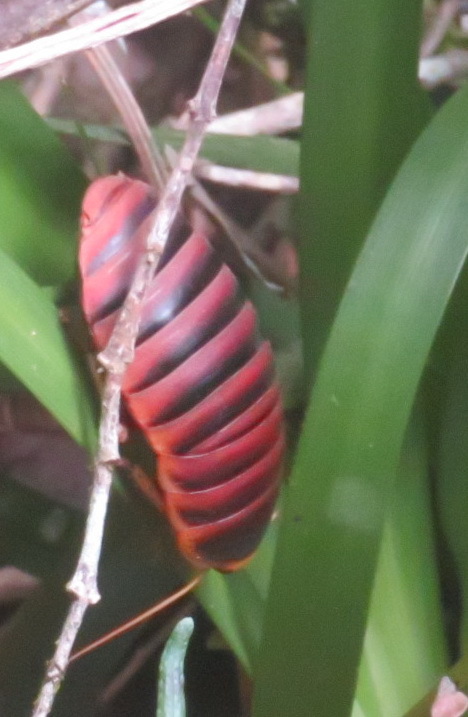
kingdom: Animalia
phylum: Arthropoda
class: Insecta
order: Blattodea
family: Blaberidae
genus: Aptera
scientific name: Aptera fusca
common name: Cape mountain cockroach
